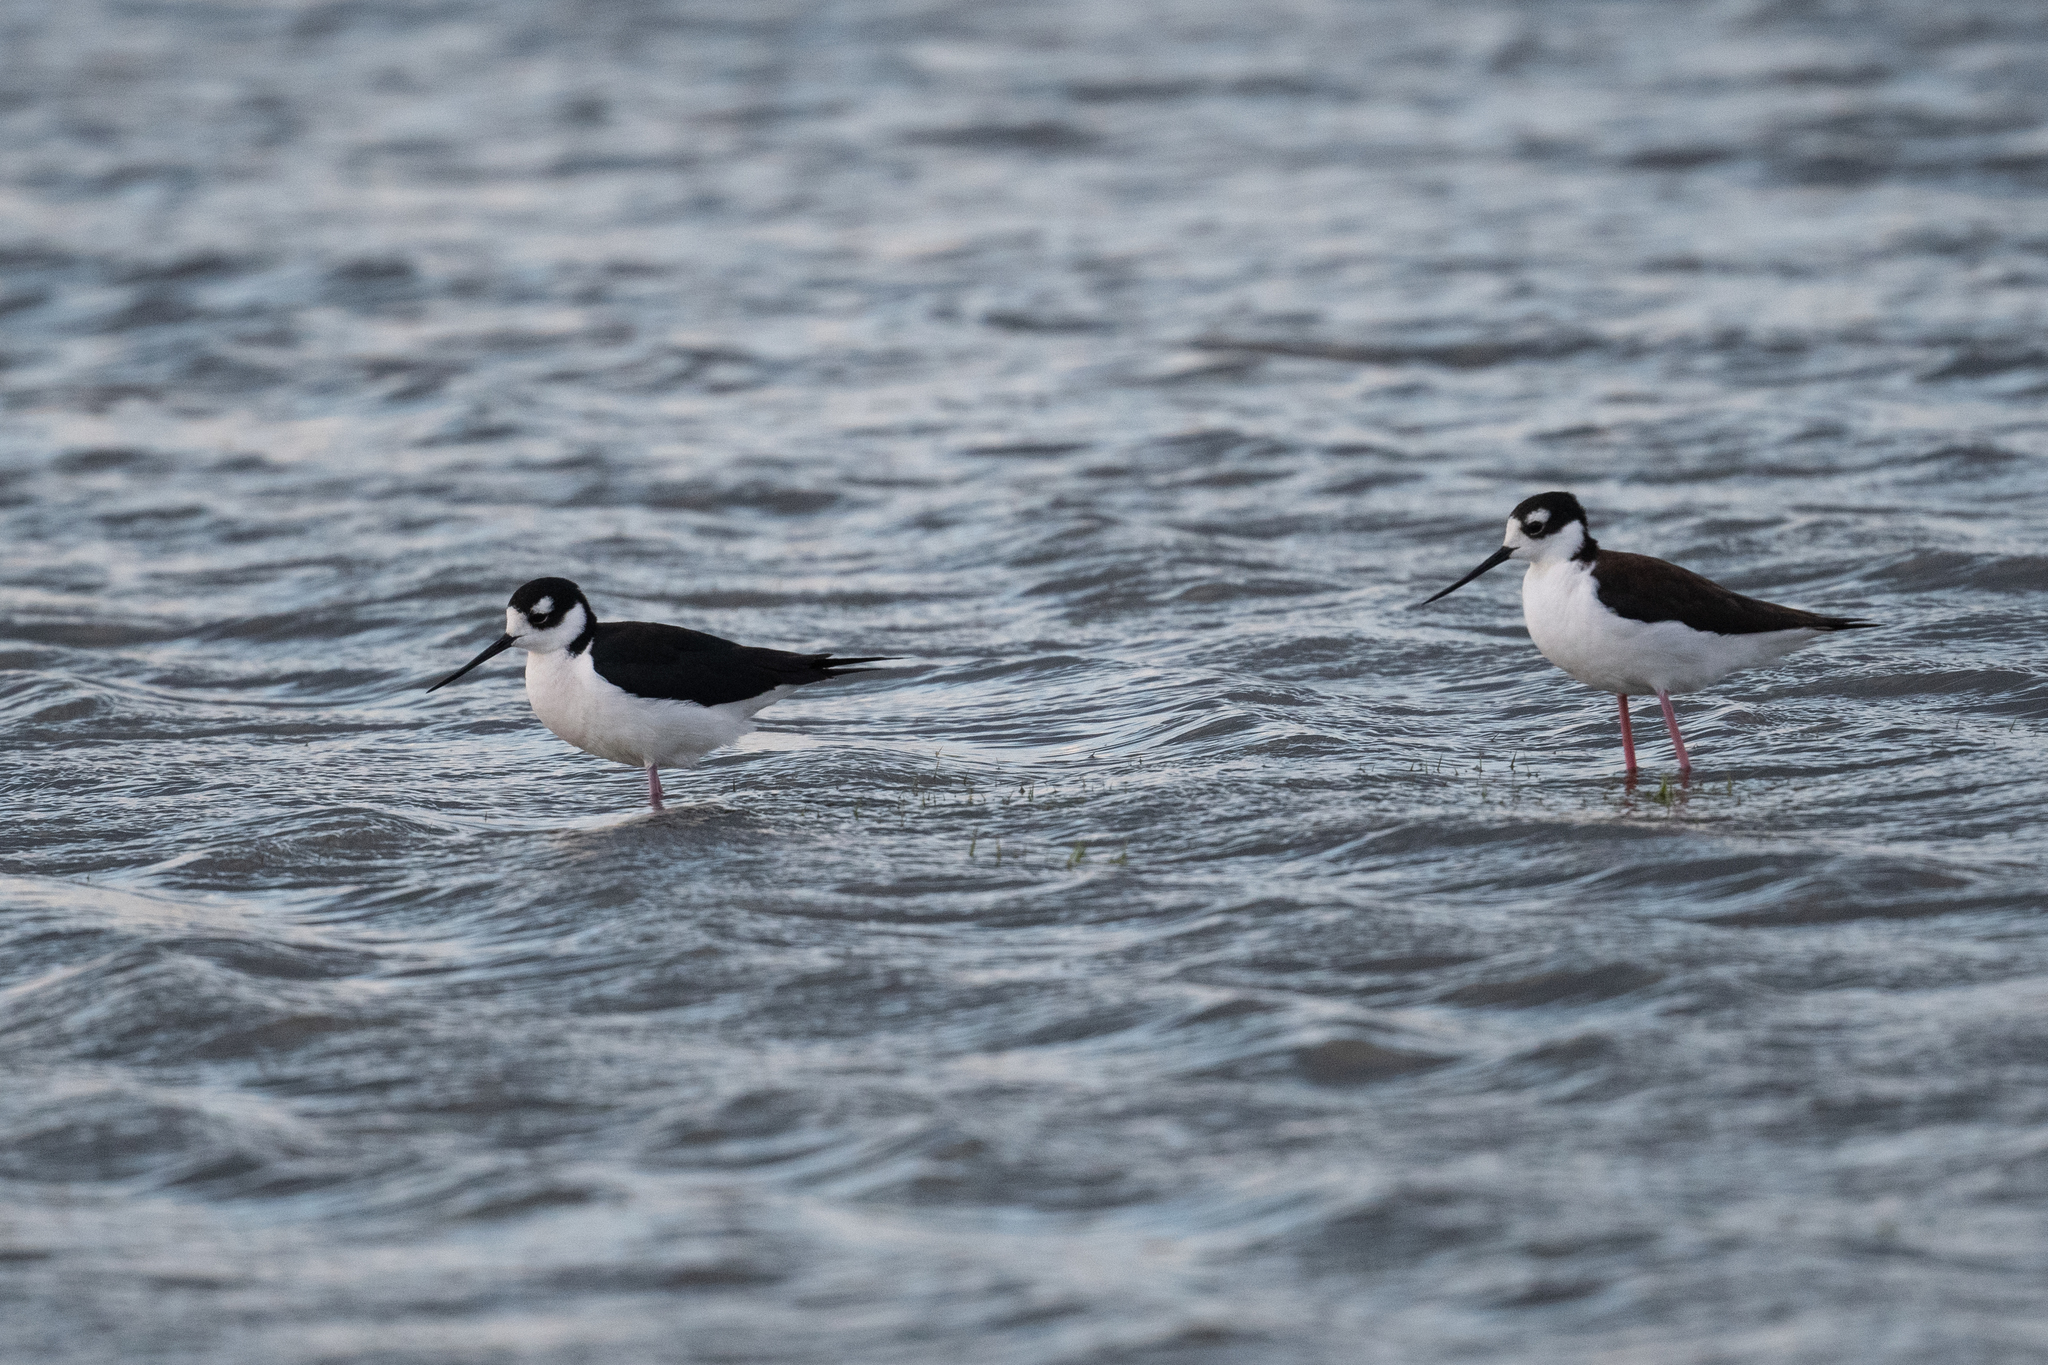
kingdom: Animalia
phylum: Chordata
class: Aves
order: Charadriiformes
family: Recurvirostridae
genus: Himantopus
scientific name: Himantopus mexicanus
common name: Black-necked stilt
